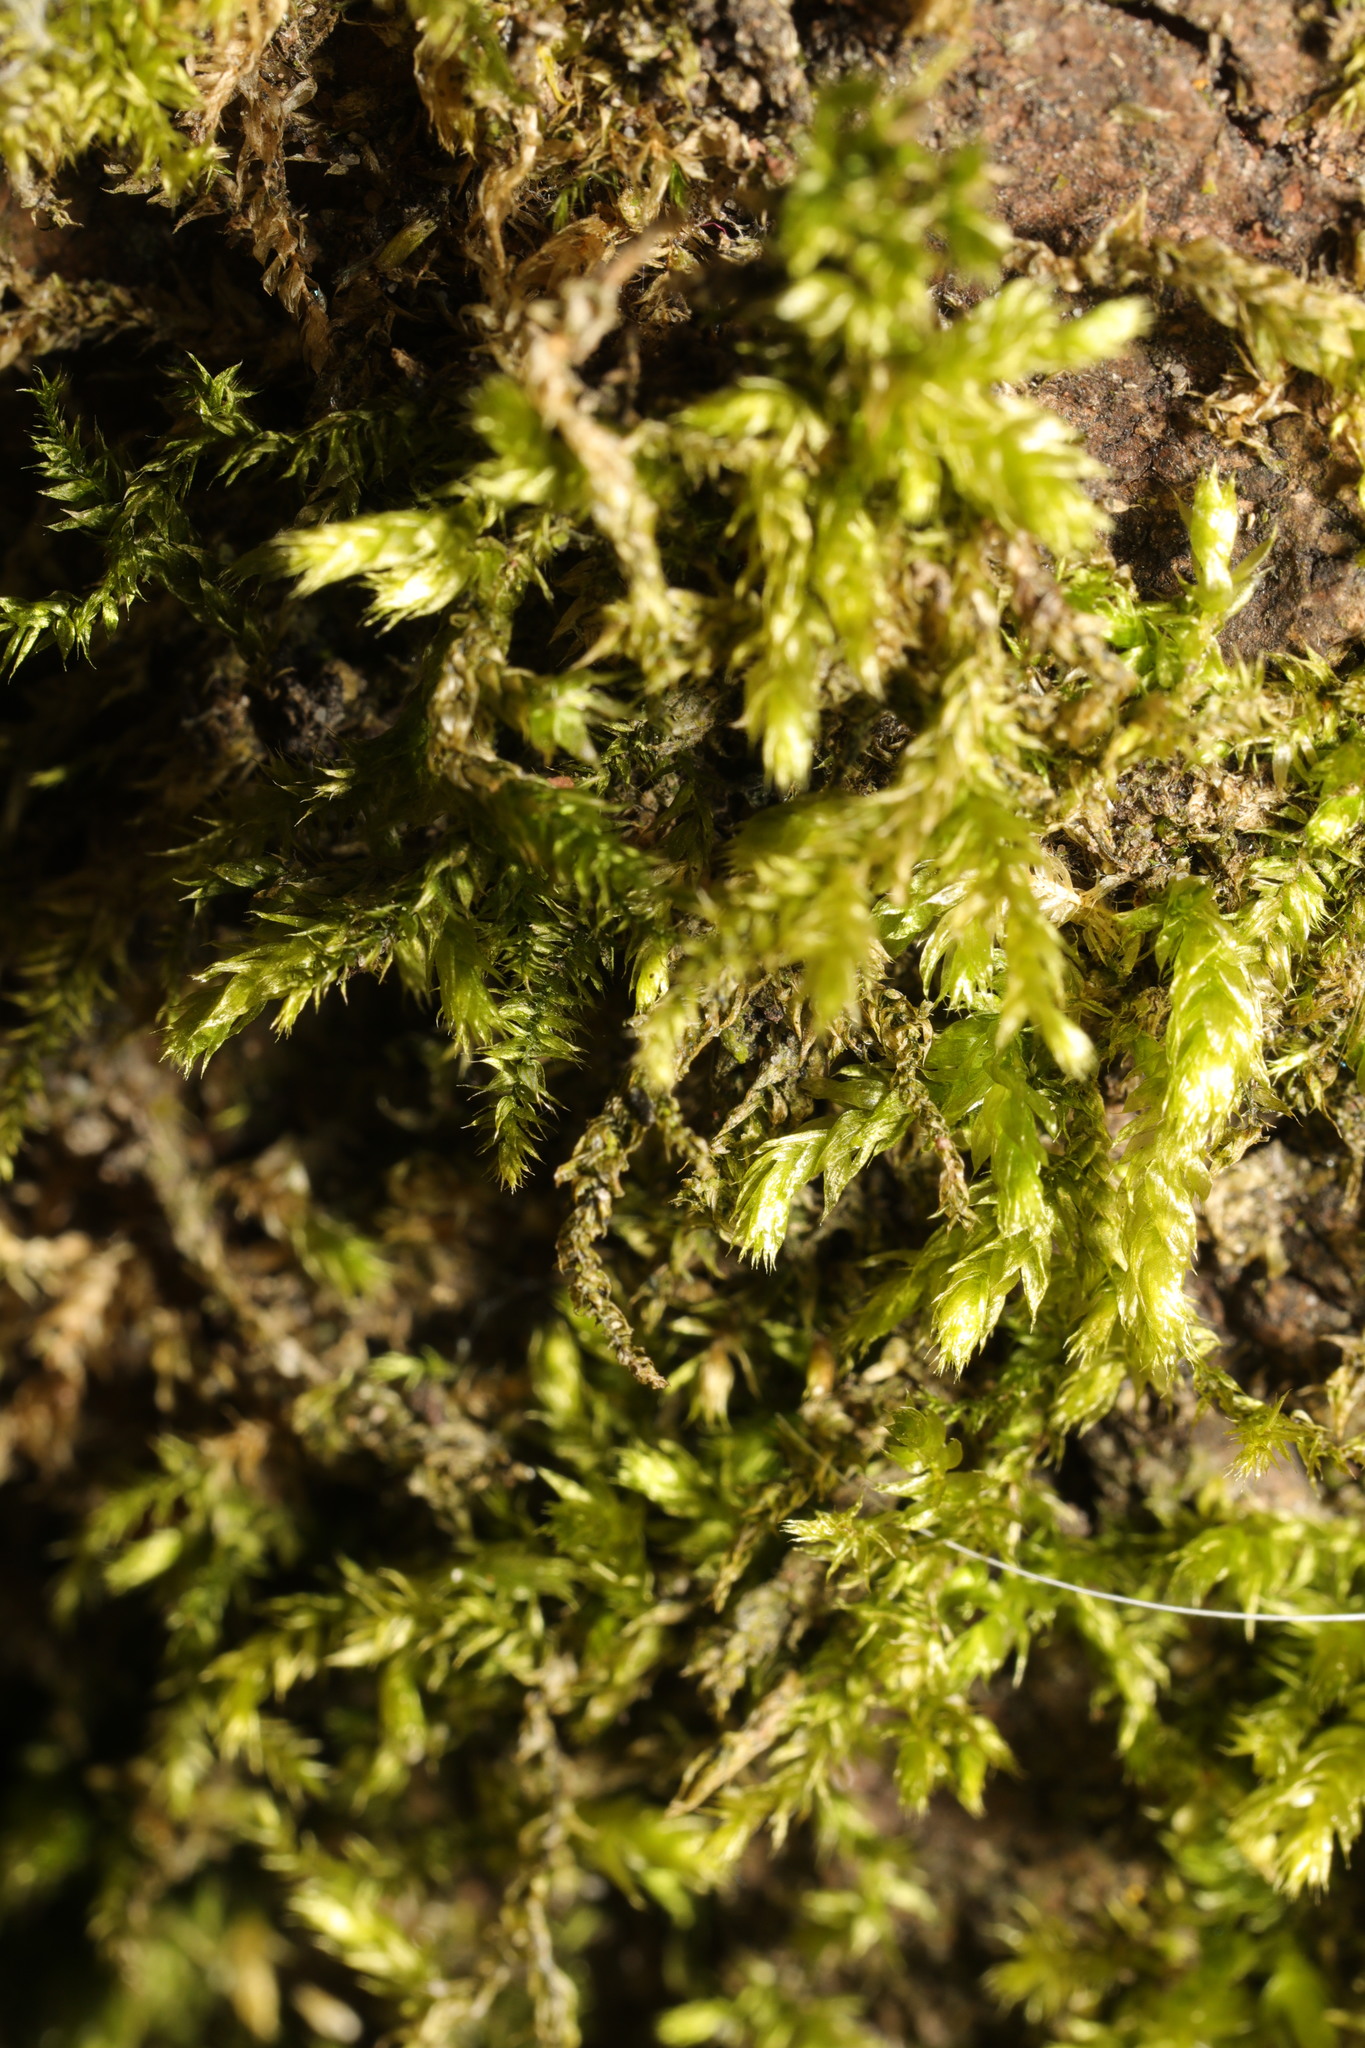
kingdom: Plantae
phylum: Bryophyta
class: Bryopsida
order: Hypnales
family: Brachytheciaceae
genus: Brachythecium
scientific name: Brachythecium rutabulum
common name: Rough-stalked feather-moss
